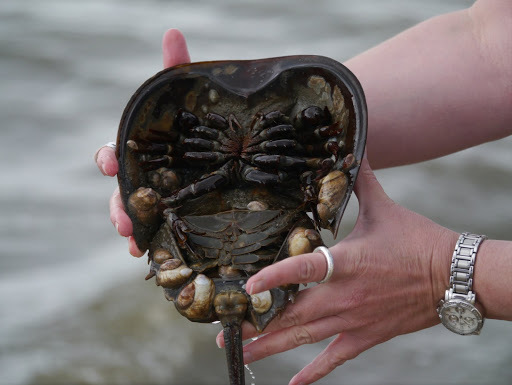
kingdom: Animalia
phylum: Mollusca
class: Gastropoda
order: Littorinimorpha
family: Calyptraeidae
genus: Crepidula
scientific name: Crepidula fornicata
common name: Slipper limpet
